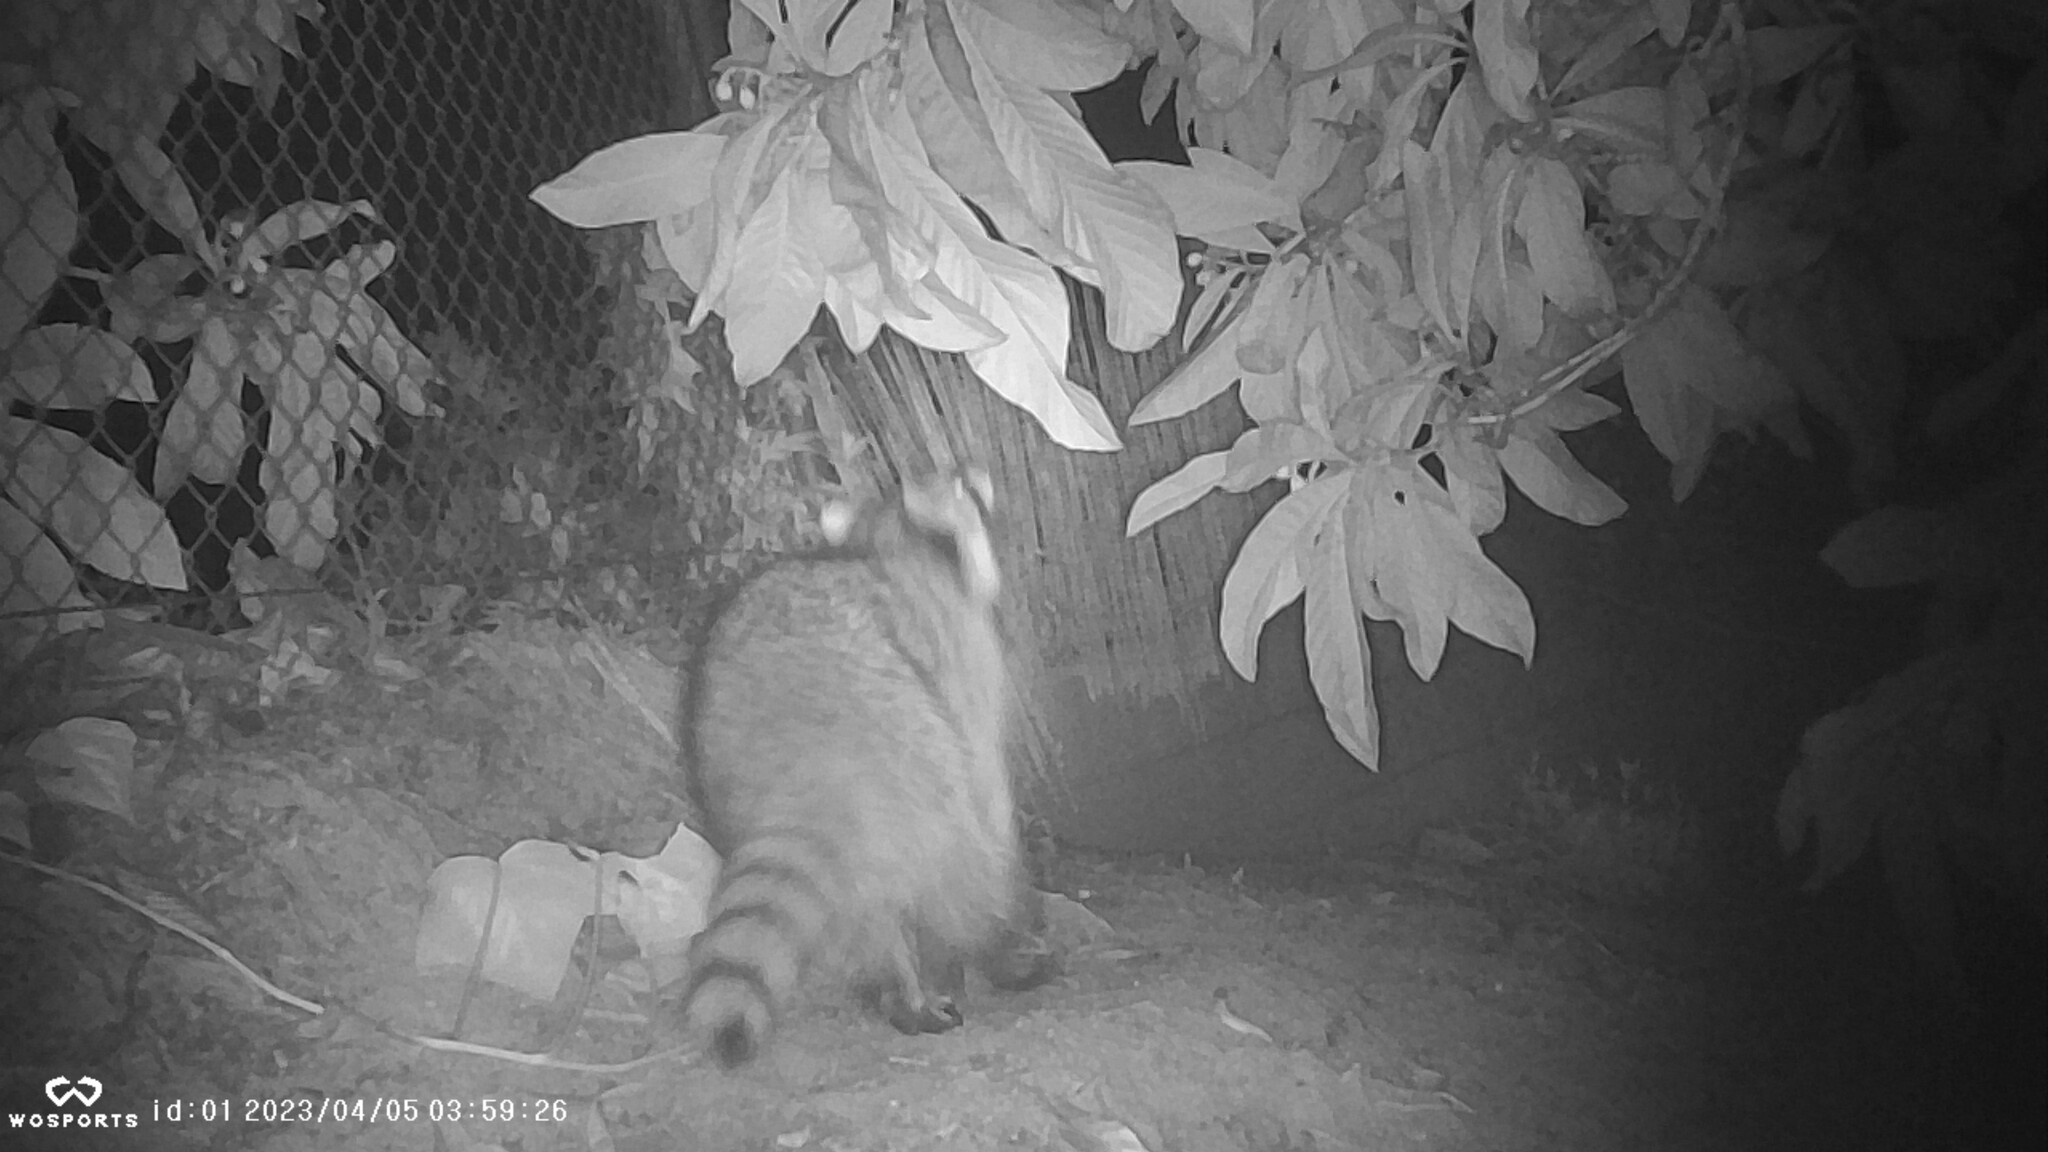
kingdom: Animalia
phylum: Chordata
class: Mammalia
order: Carnivora
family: Procyonidae
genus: Procyon
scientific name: Procyon lotor
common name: Raccoon
